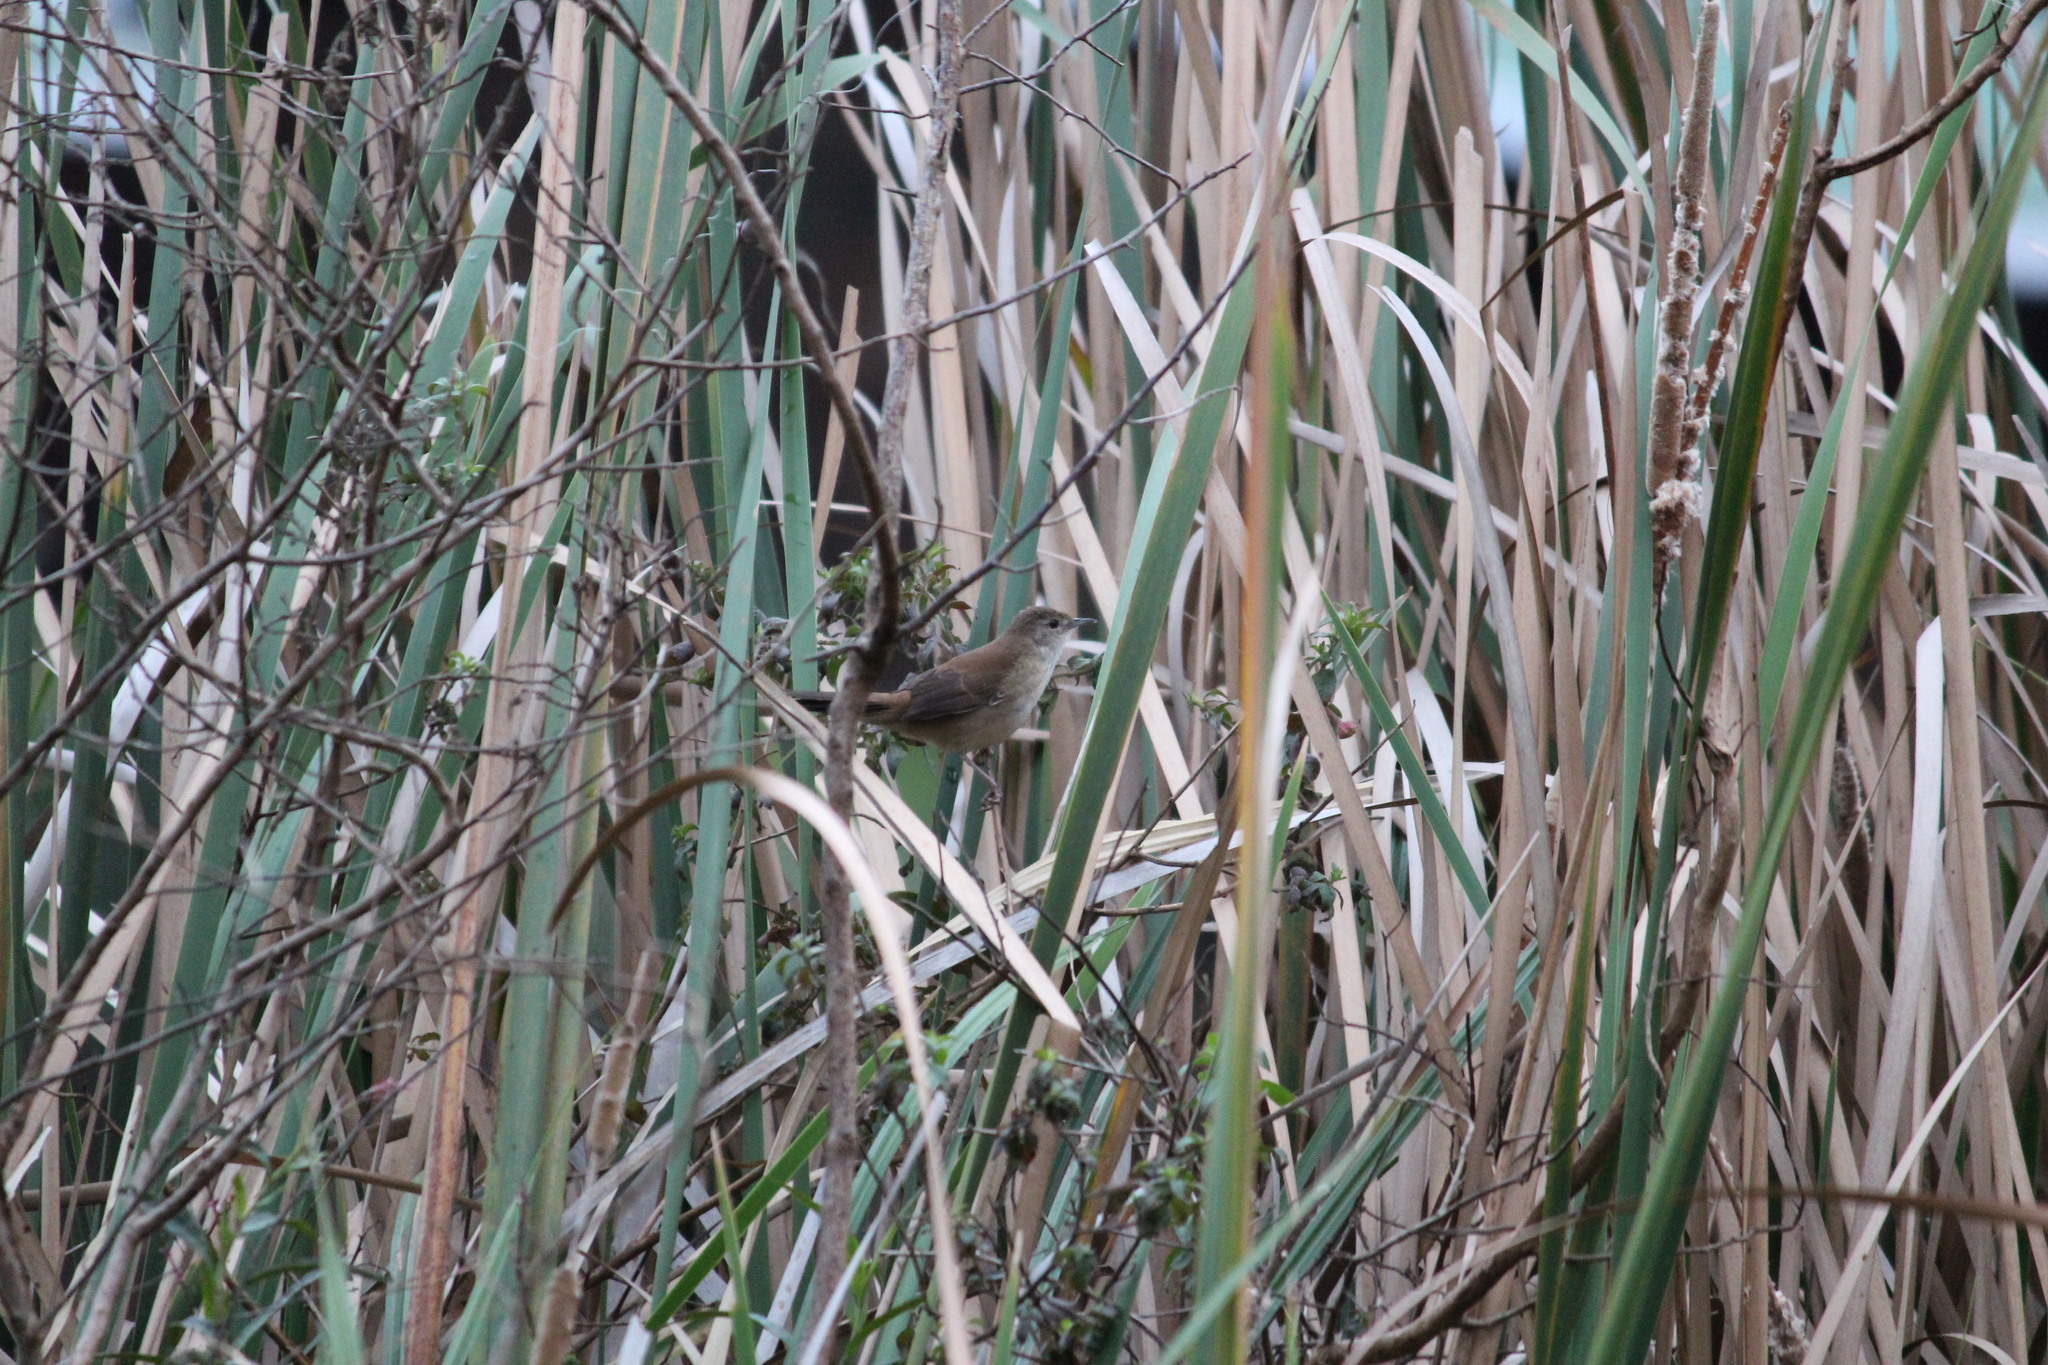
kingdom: Animalia
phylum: Chordata
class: Aves
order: Passeriformes
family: Locustellidae
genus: Bradypterus
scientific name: Bradypterus baboecala
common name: Little rush warbler
